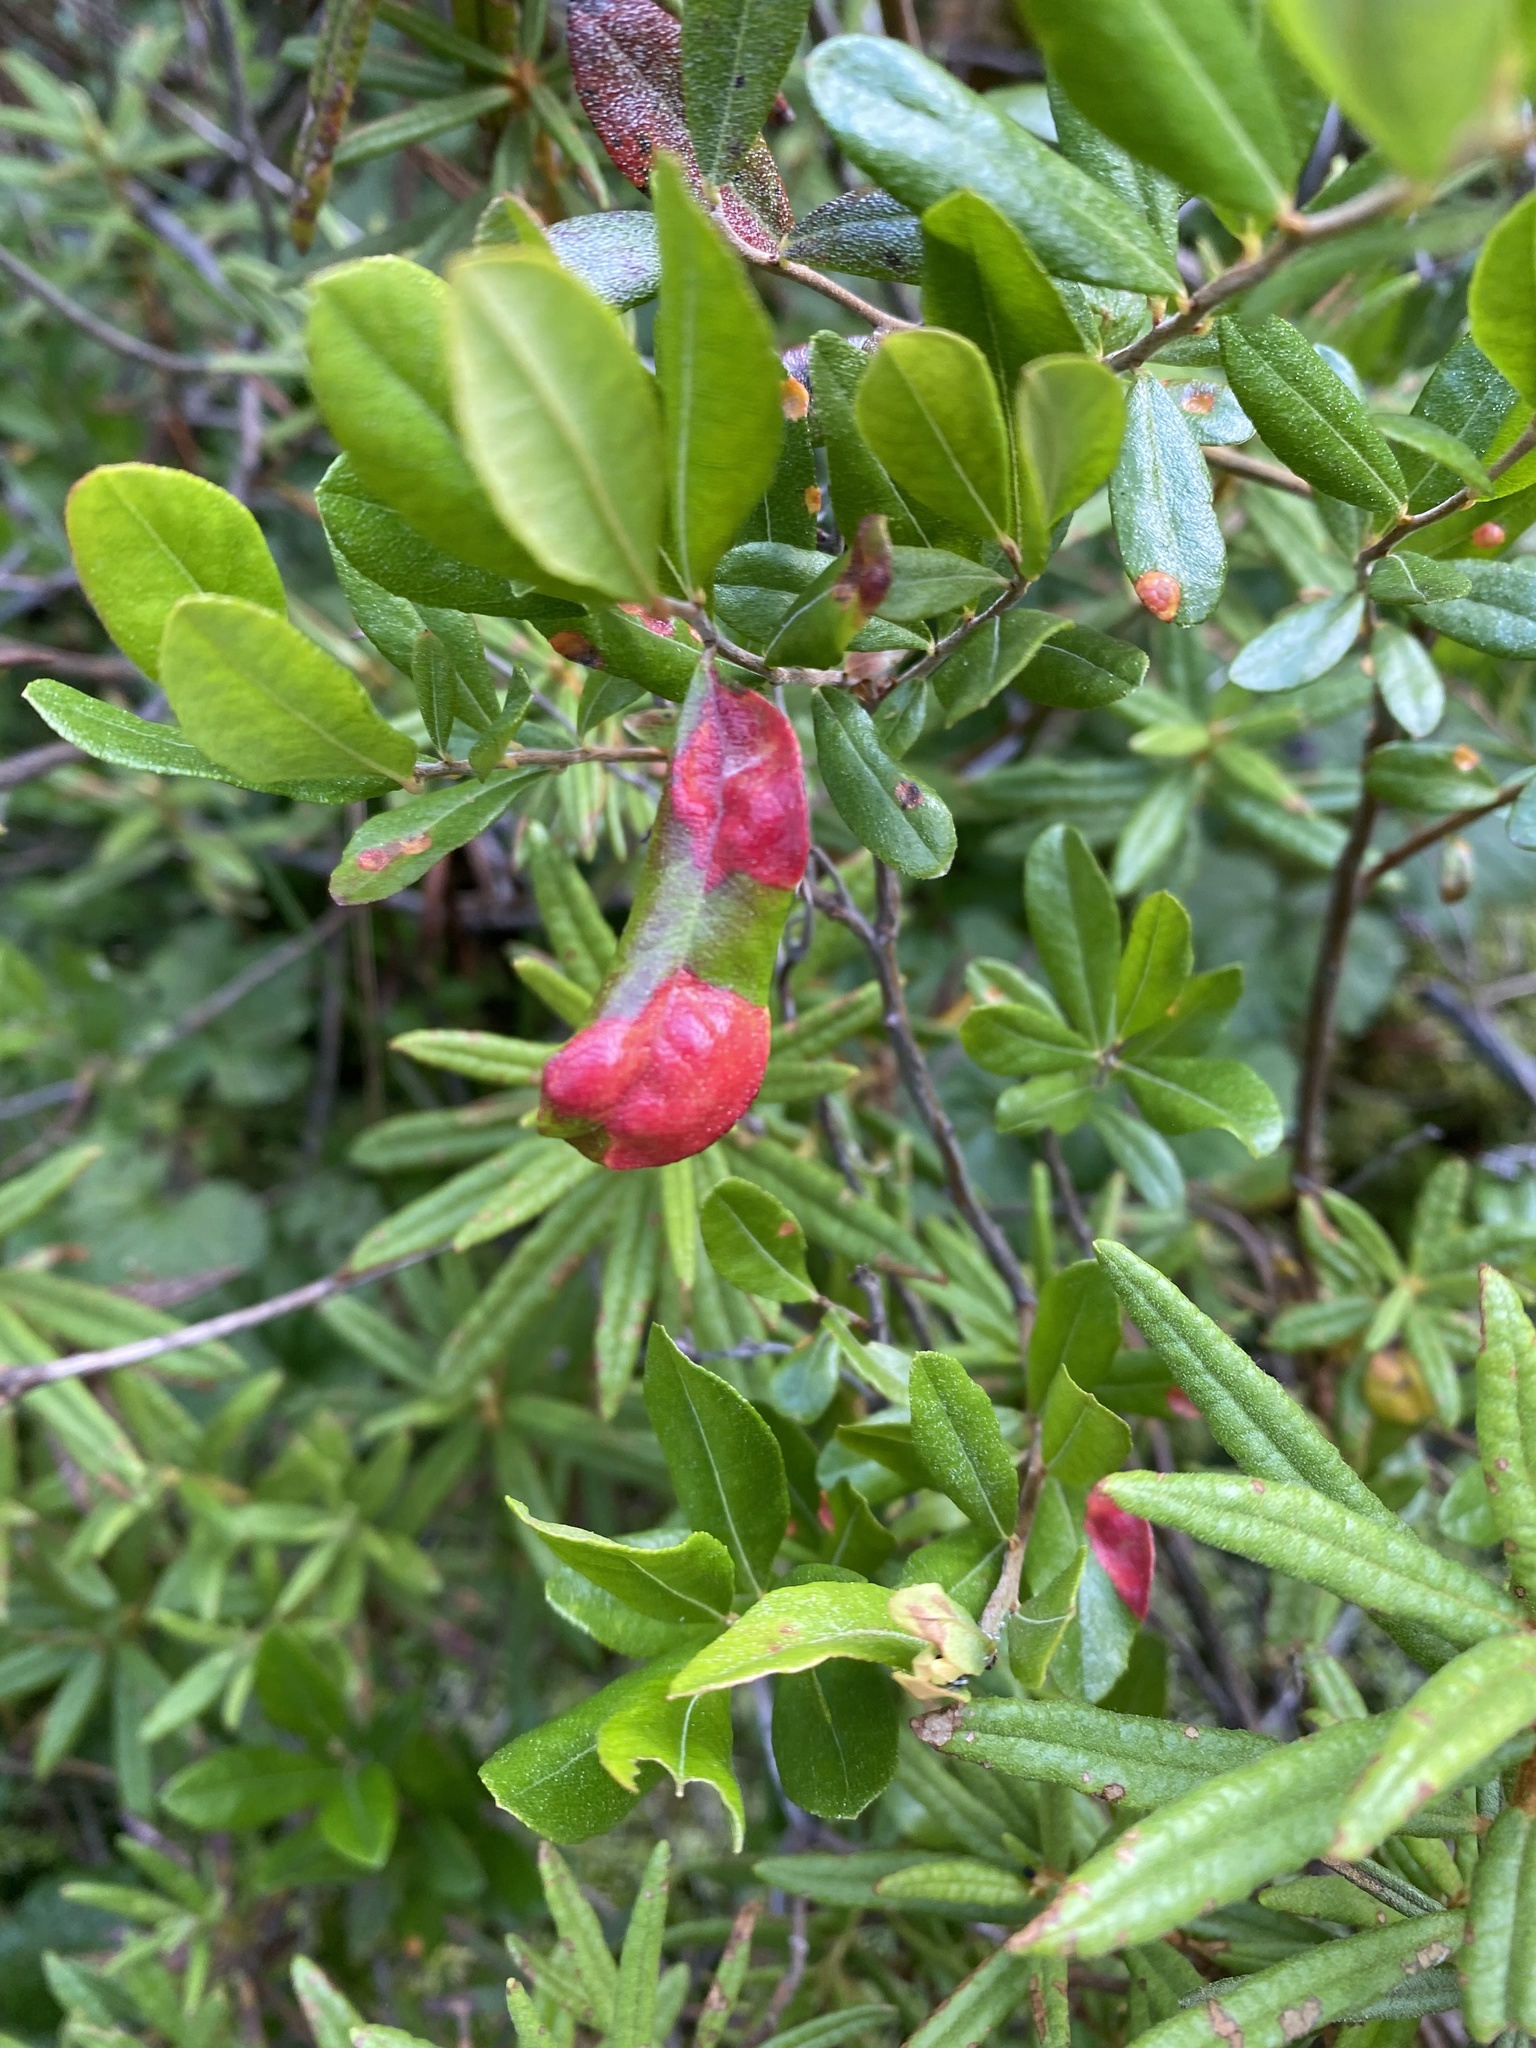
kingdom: Plantae
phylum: Tracheophyta
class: Magnoliopsida
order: Ericales
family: Ericaceae
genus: Vaccinium
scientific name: Vaccinium vitis-idaea
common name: Cowberry
